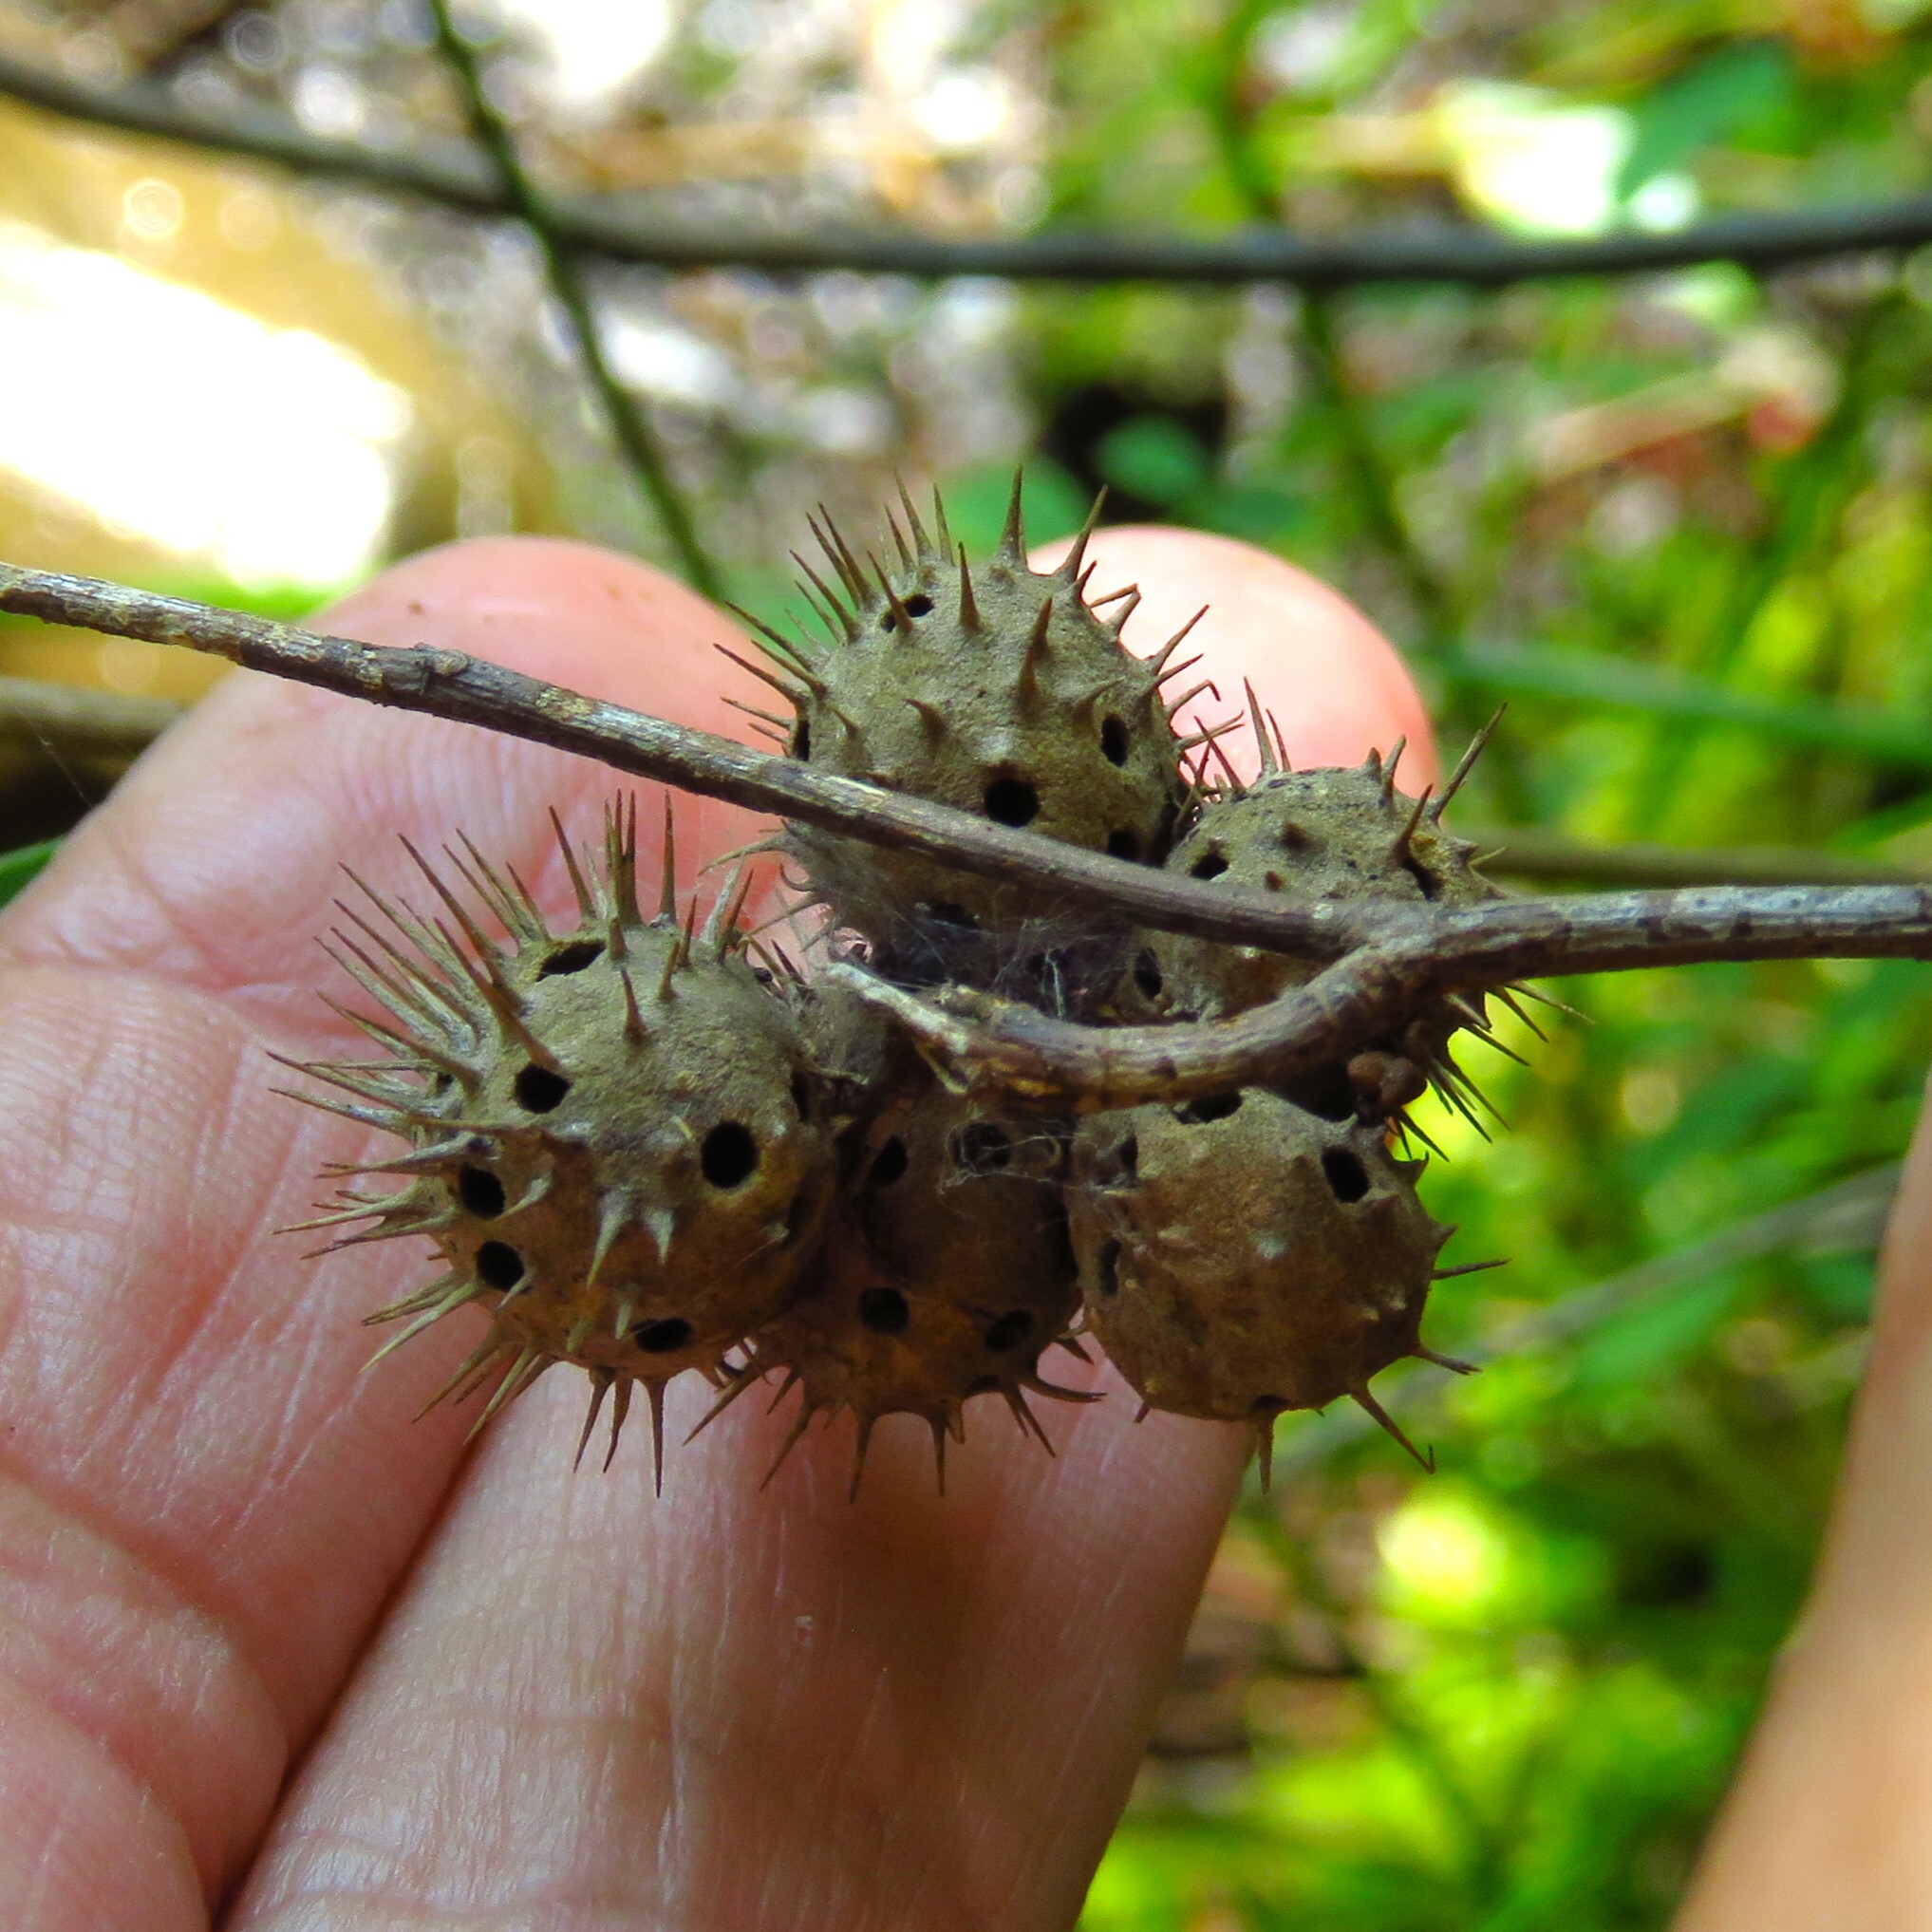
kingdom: Animalia
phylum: Arthropoda
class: Insecta
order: Hymenoptera
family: Cynipidae
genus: Diplolepis
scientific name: Diplolepis bicolor
